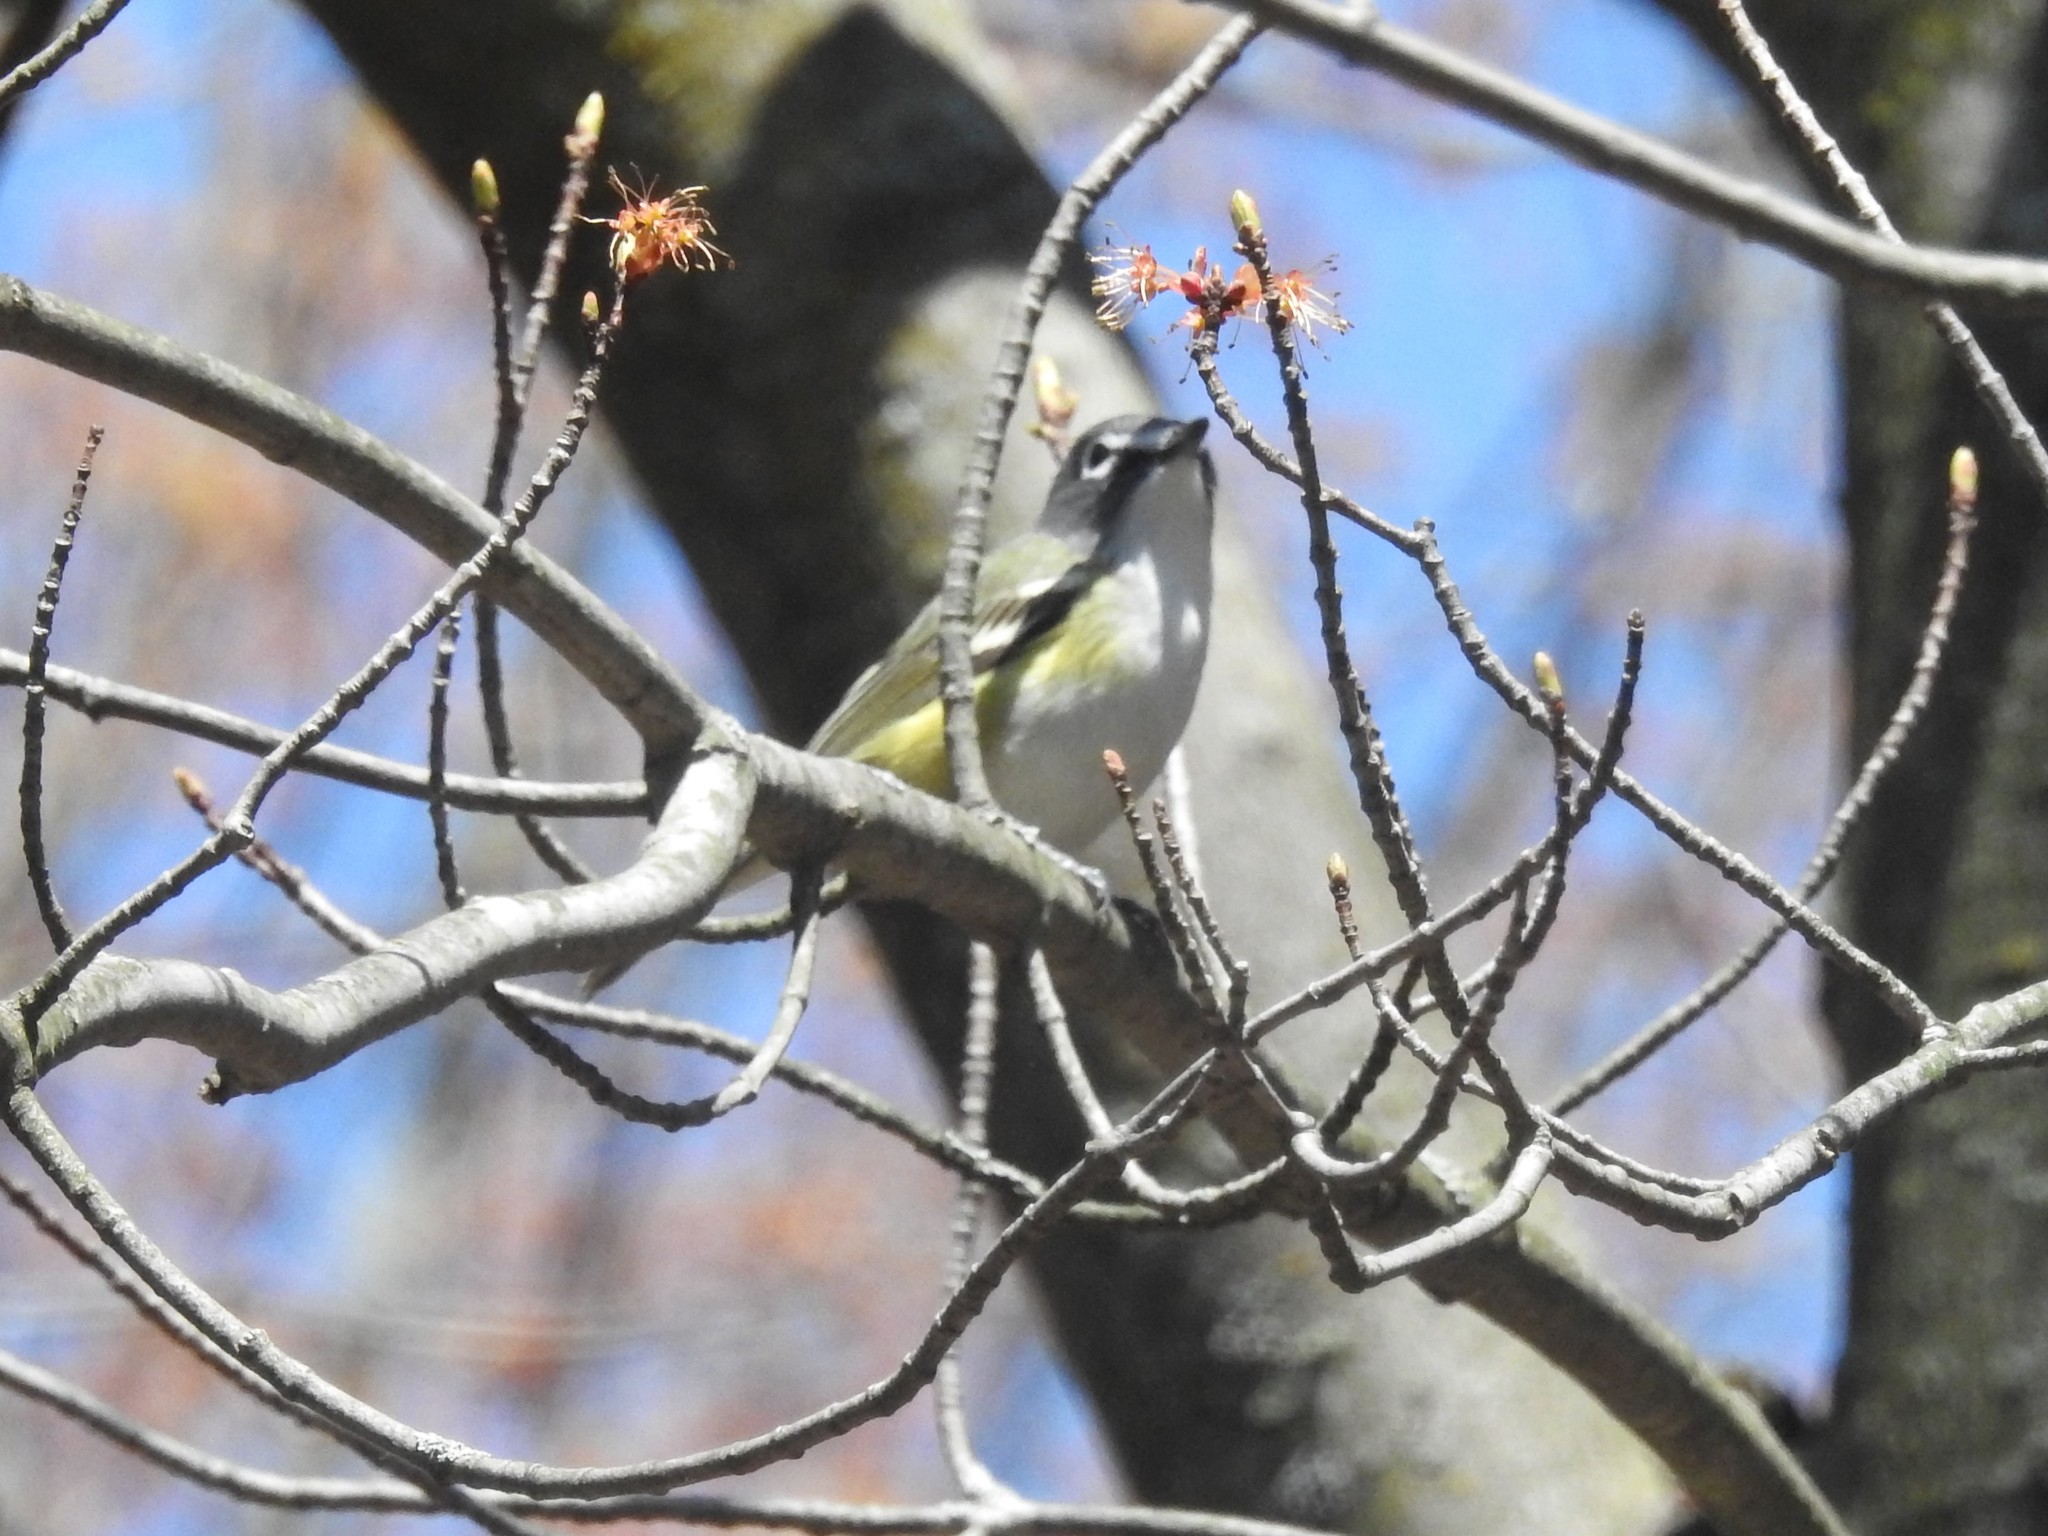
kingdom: Animalia
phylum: Chordata
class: Aves
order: Passeriformes
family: Vireonidae
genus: Vireo
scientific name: Vireo solitarius
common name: Blue-headed vireo
